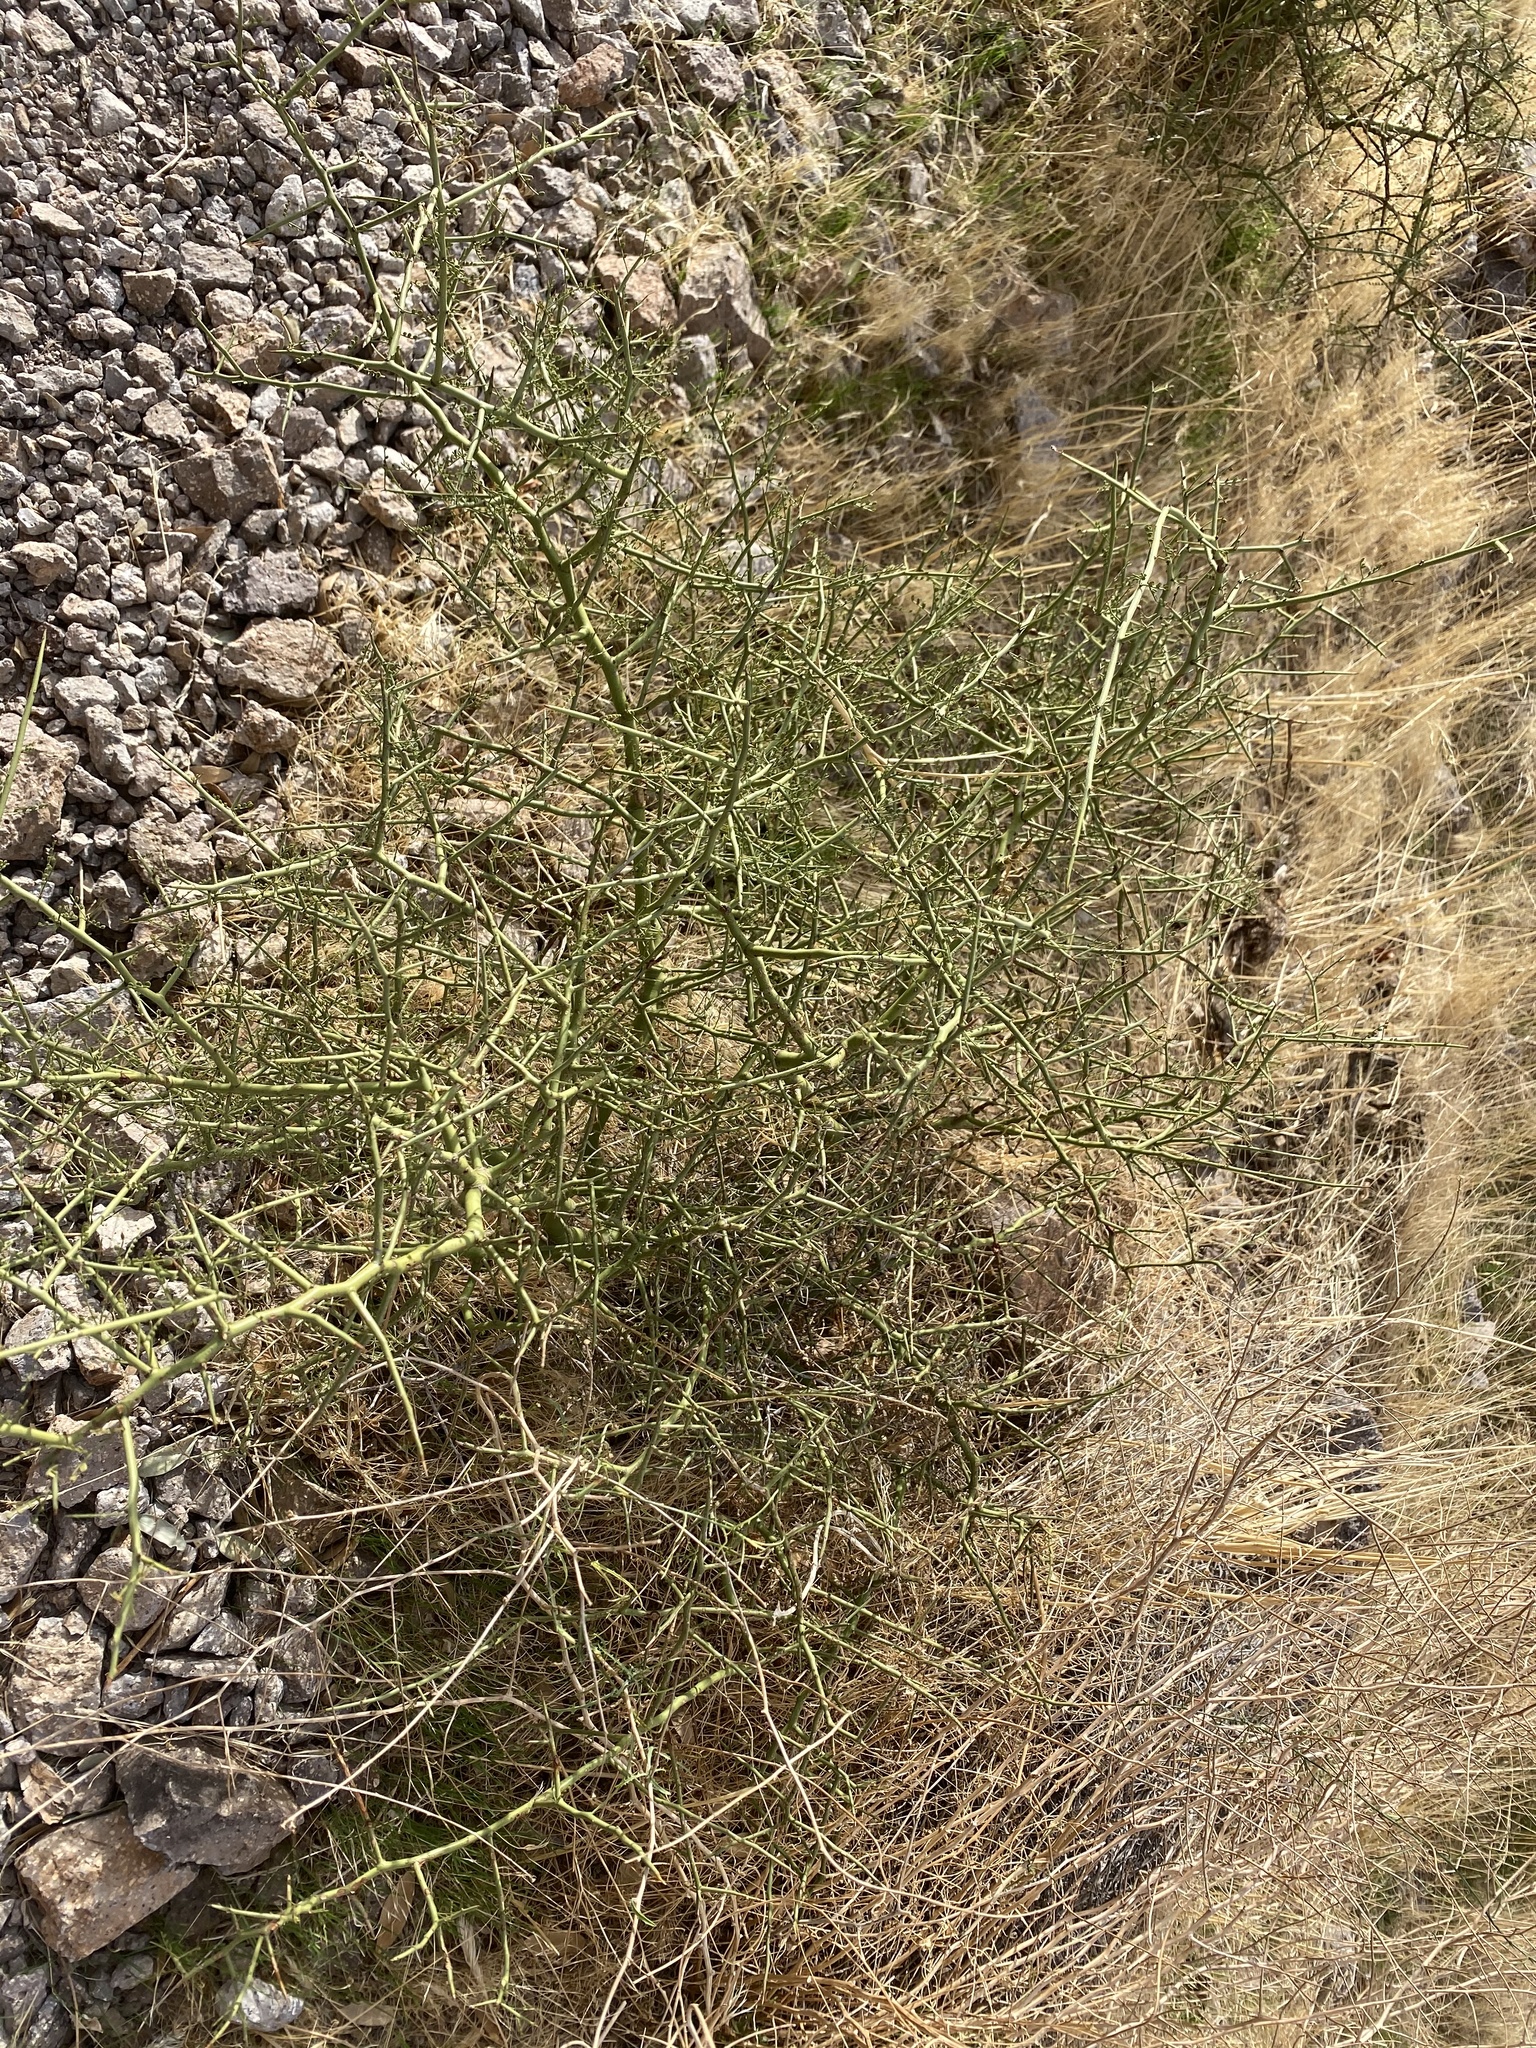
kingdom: Plantae
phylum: Tracheophyta
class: Magnoliopsida
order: Brassicales
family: Koeberliniaceae
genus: Koeberlinia
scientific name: Koeberlinia spinosa
